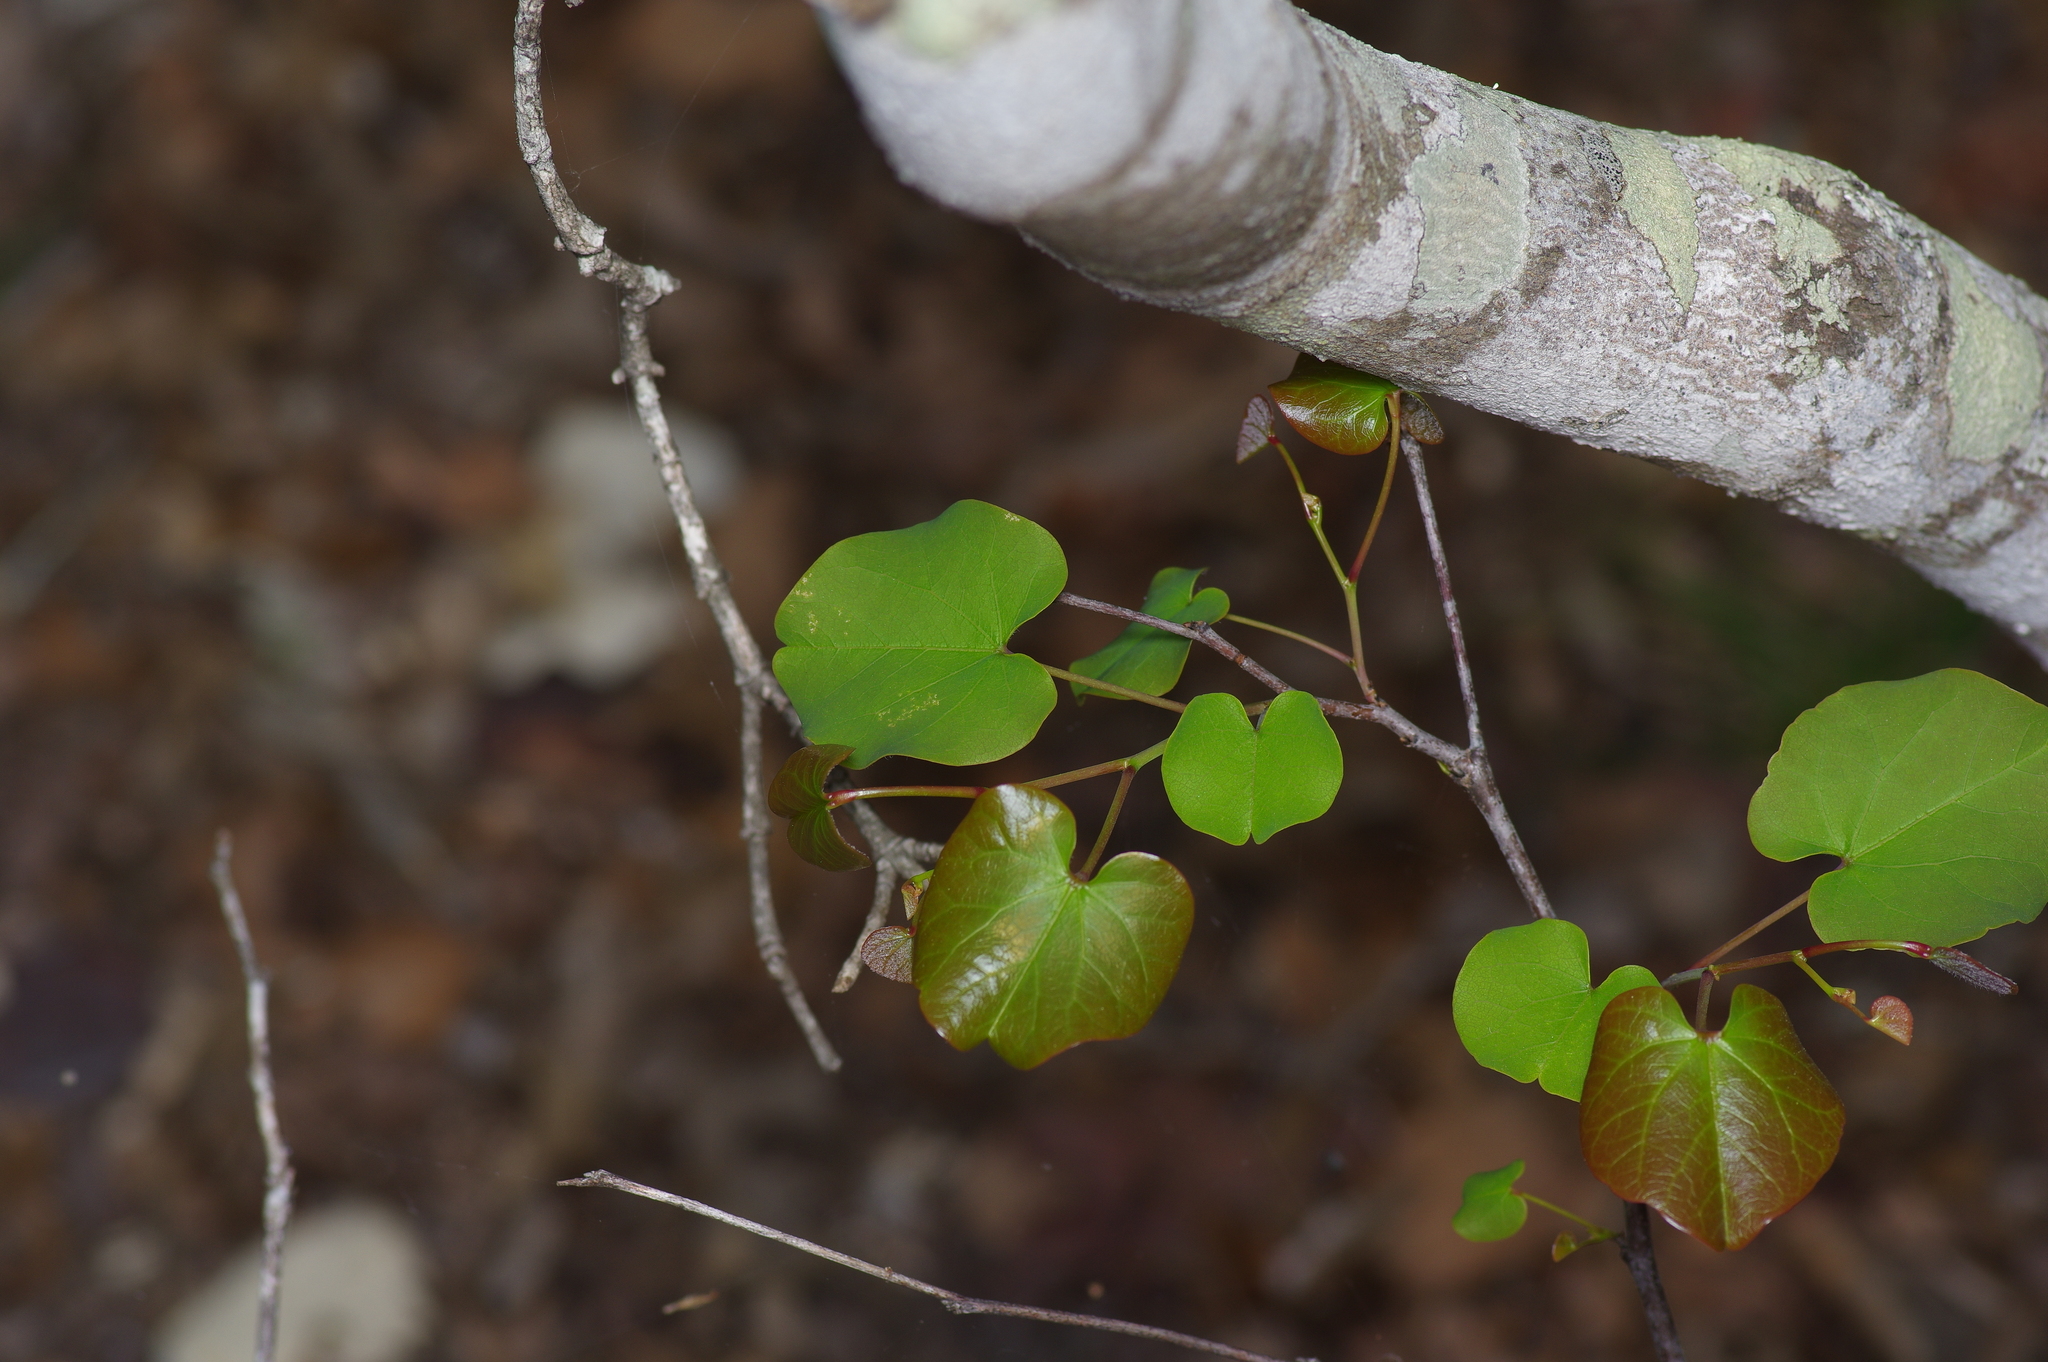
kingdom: Plantae
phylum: Tracheophyta
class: Magnoliopsida
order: Fabales
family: Fabaceae
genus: Cercis
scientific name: Cercis canadensis
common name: Eastern redbud
